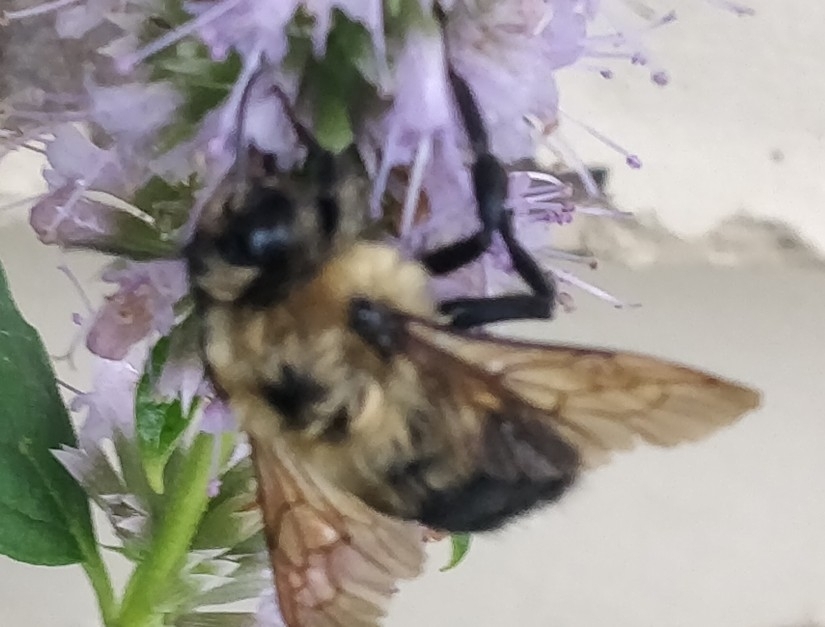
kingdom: Animalia
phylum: Arthropoda
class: Insecta
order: Hymenoptera
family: Apidae
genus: Bombus
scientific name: Bombus griseocollis
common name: Brown-belted bumble bee
